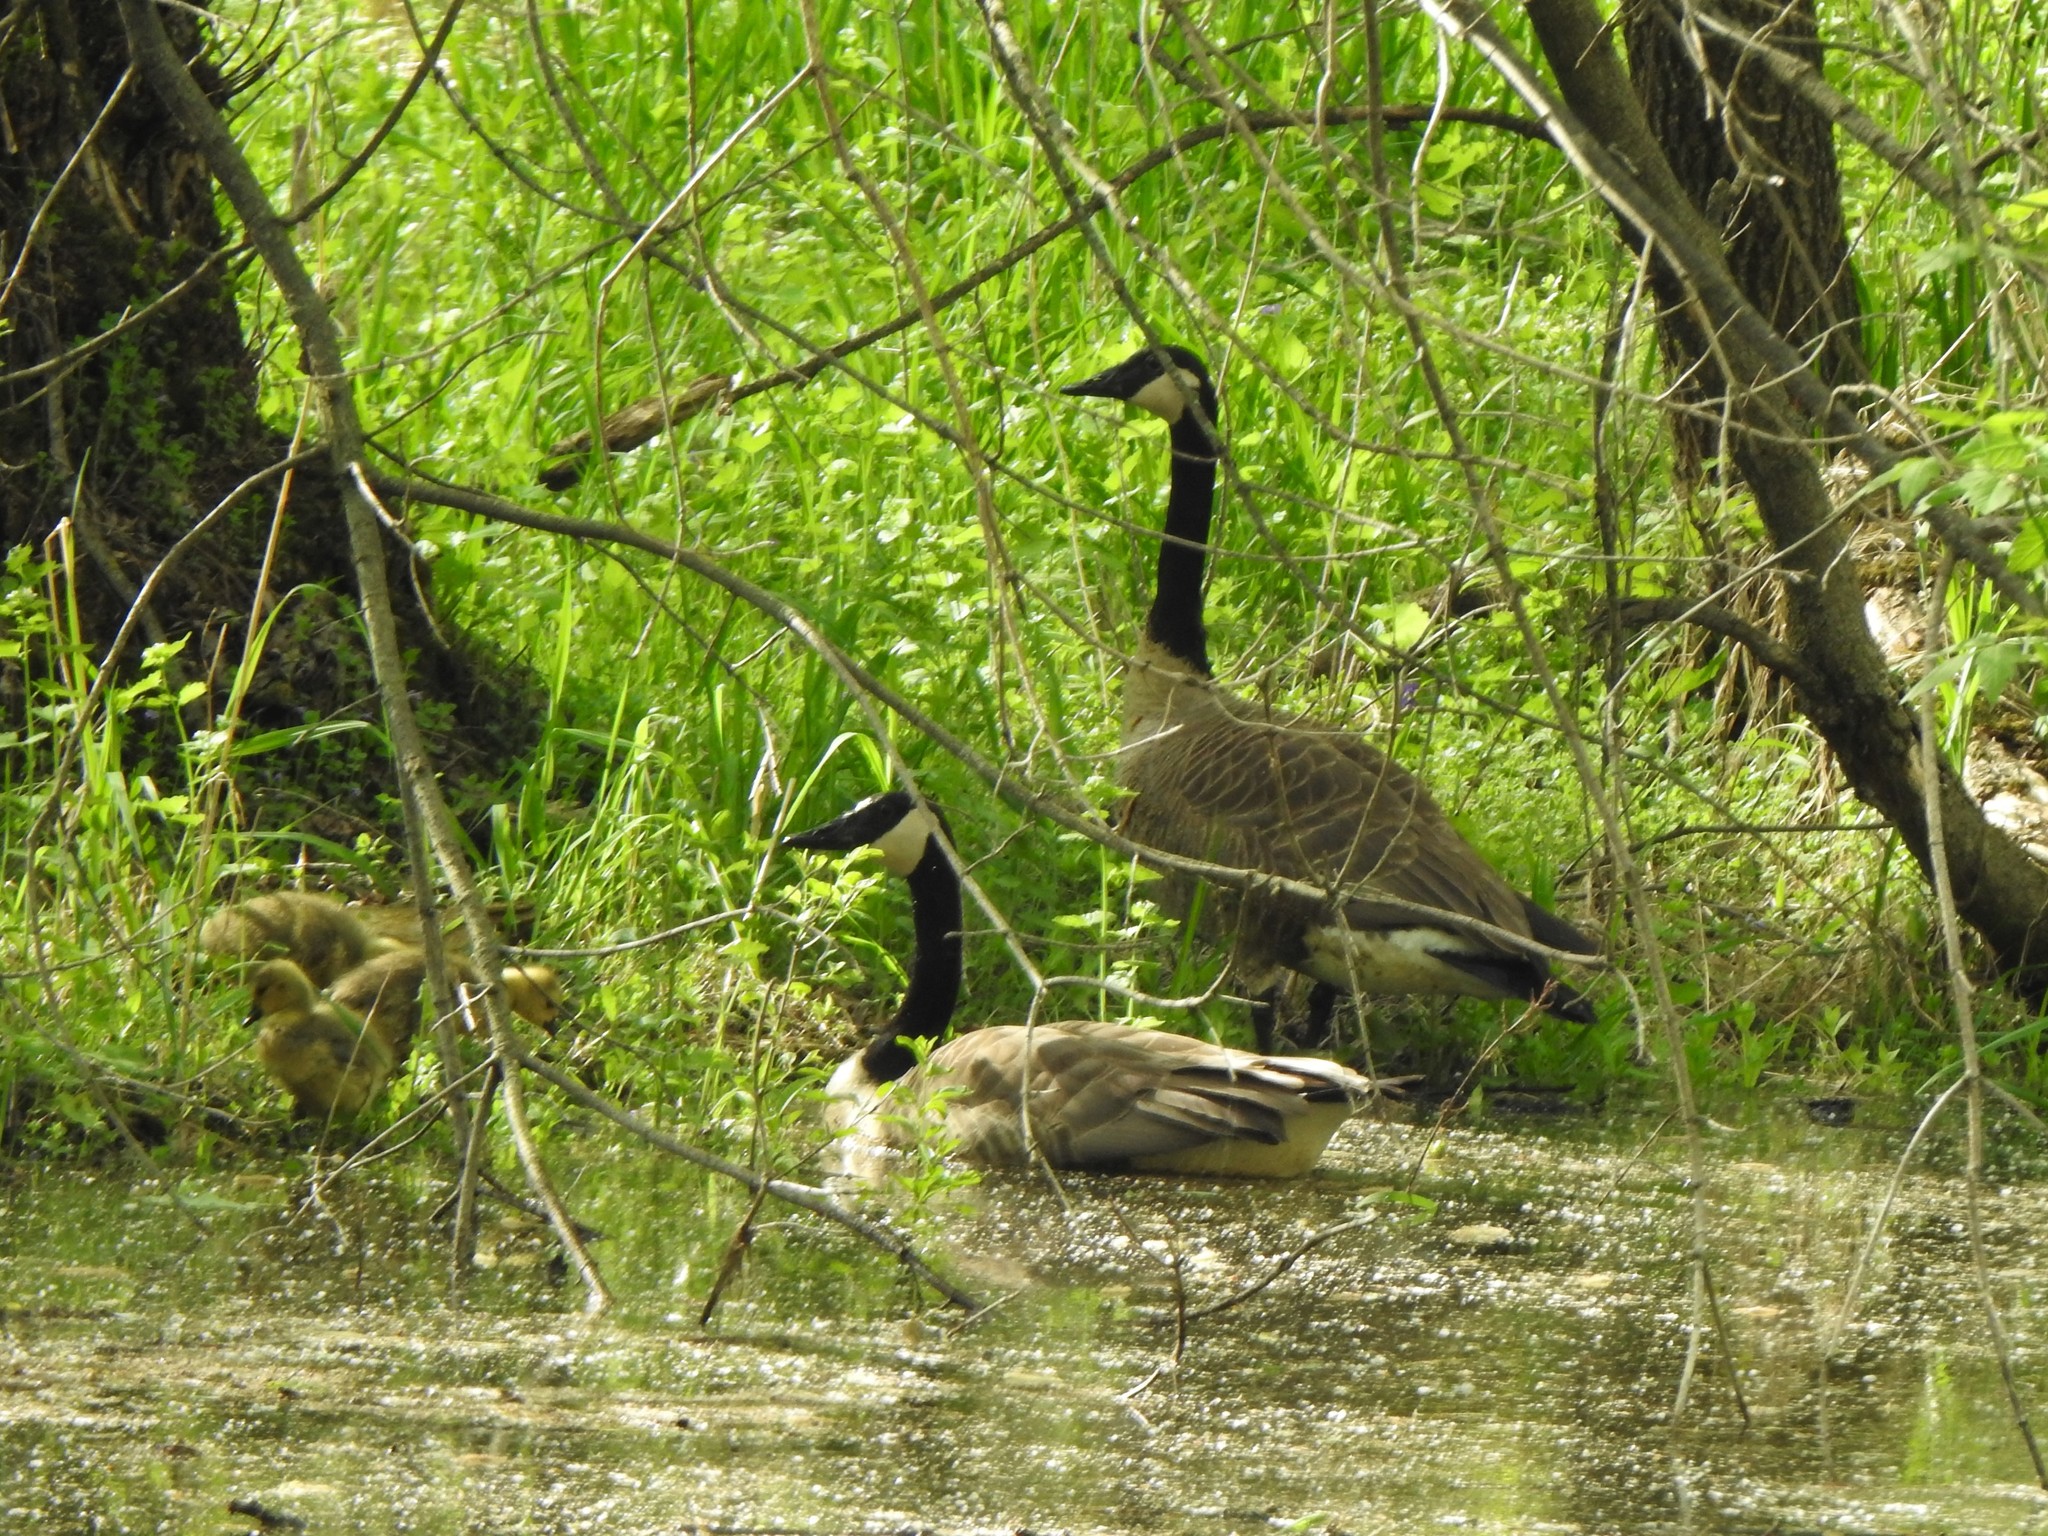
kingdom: Animalia
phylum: Chordata
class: Aves
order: Anseriformes
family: Anatidae
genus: Branta
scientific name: Branta canadensis
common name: Canada goose
